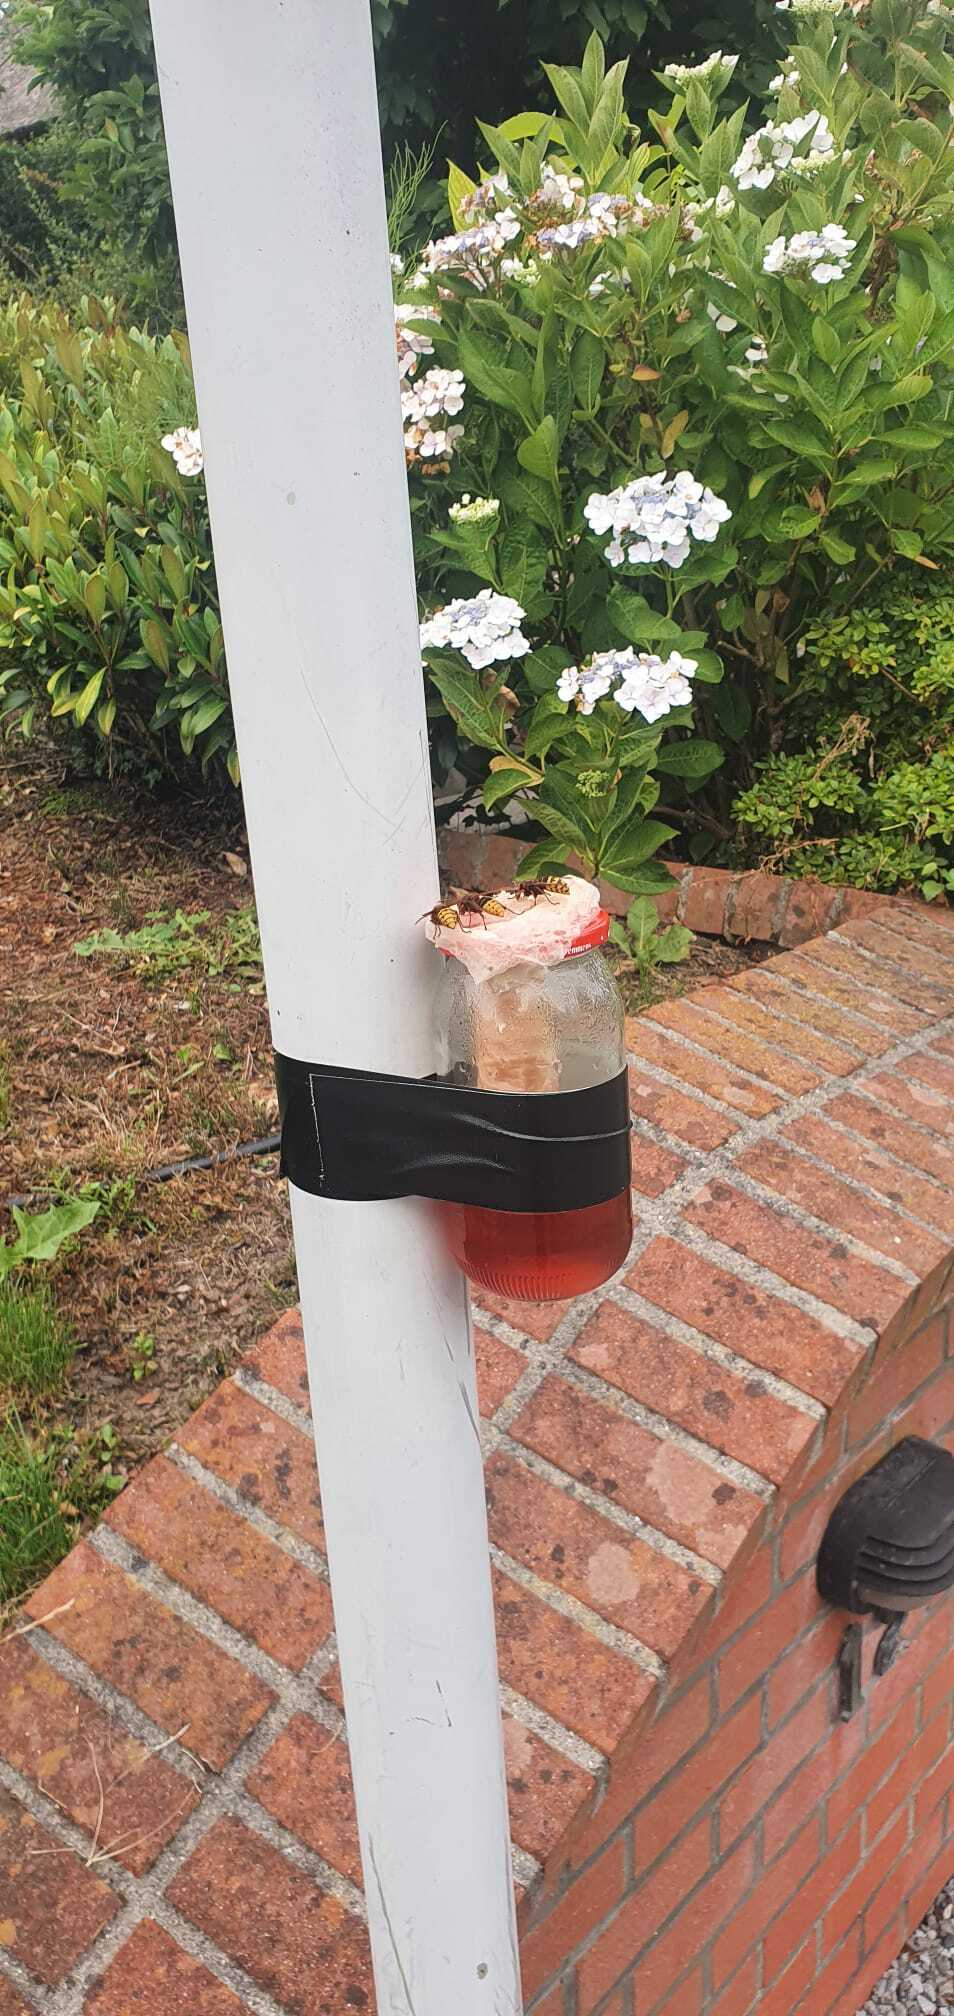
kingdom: Animalia
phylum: Arthropoda
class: Insecta
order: Hymenoptera
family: Vespidae
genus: Vespa
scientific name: Vespa crabro
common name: Hornet
